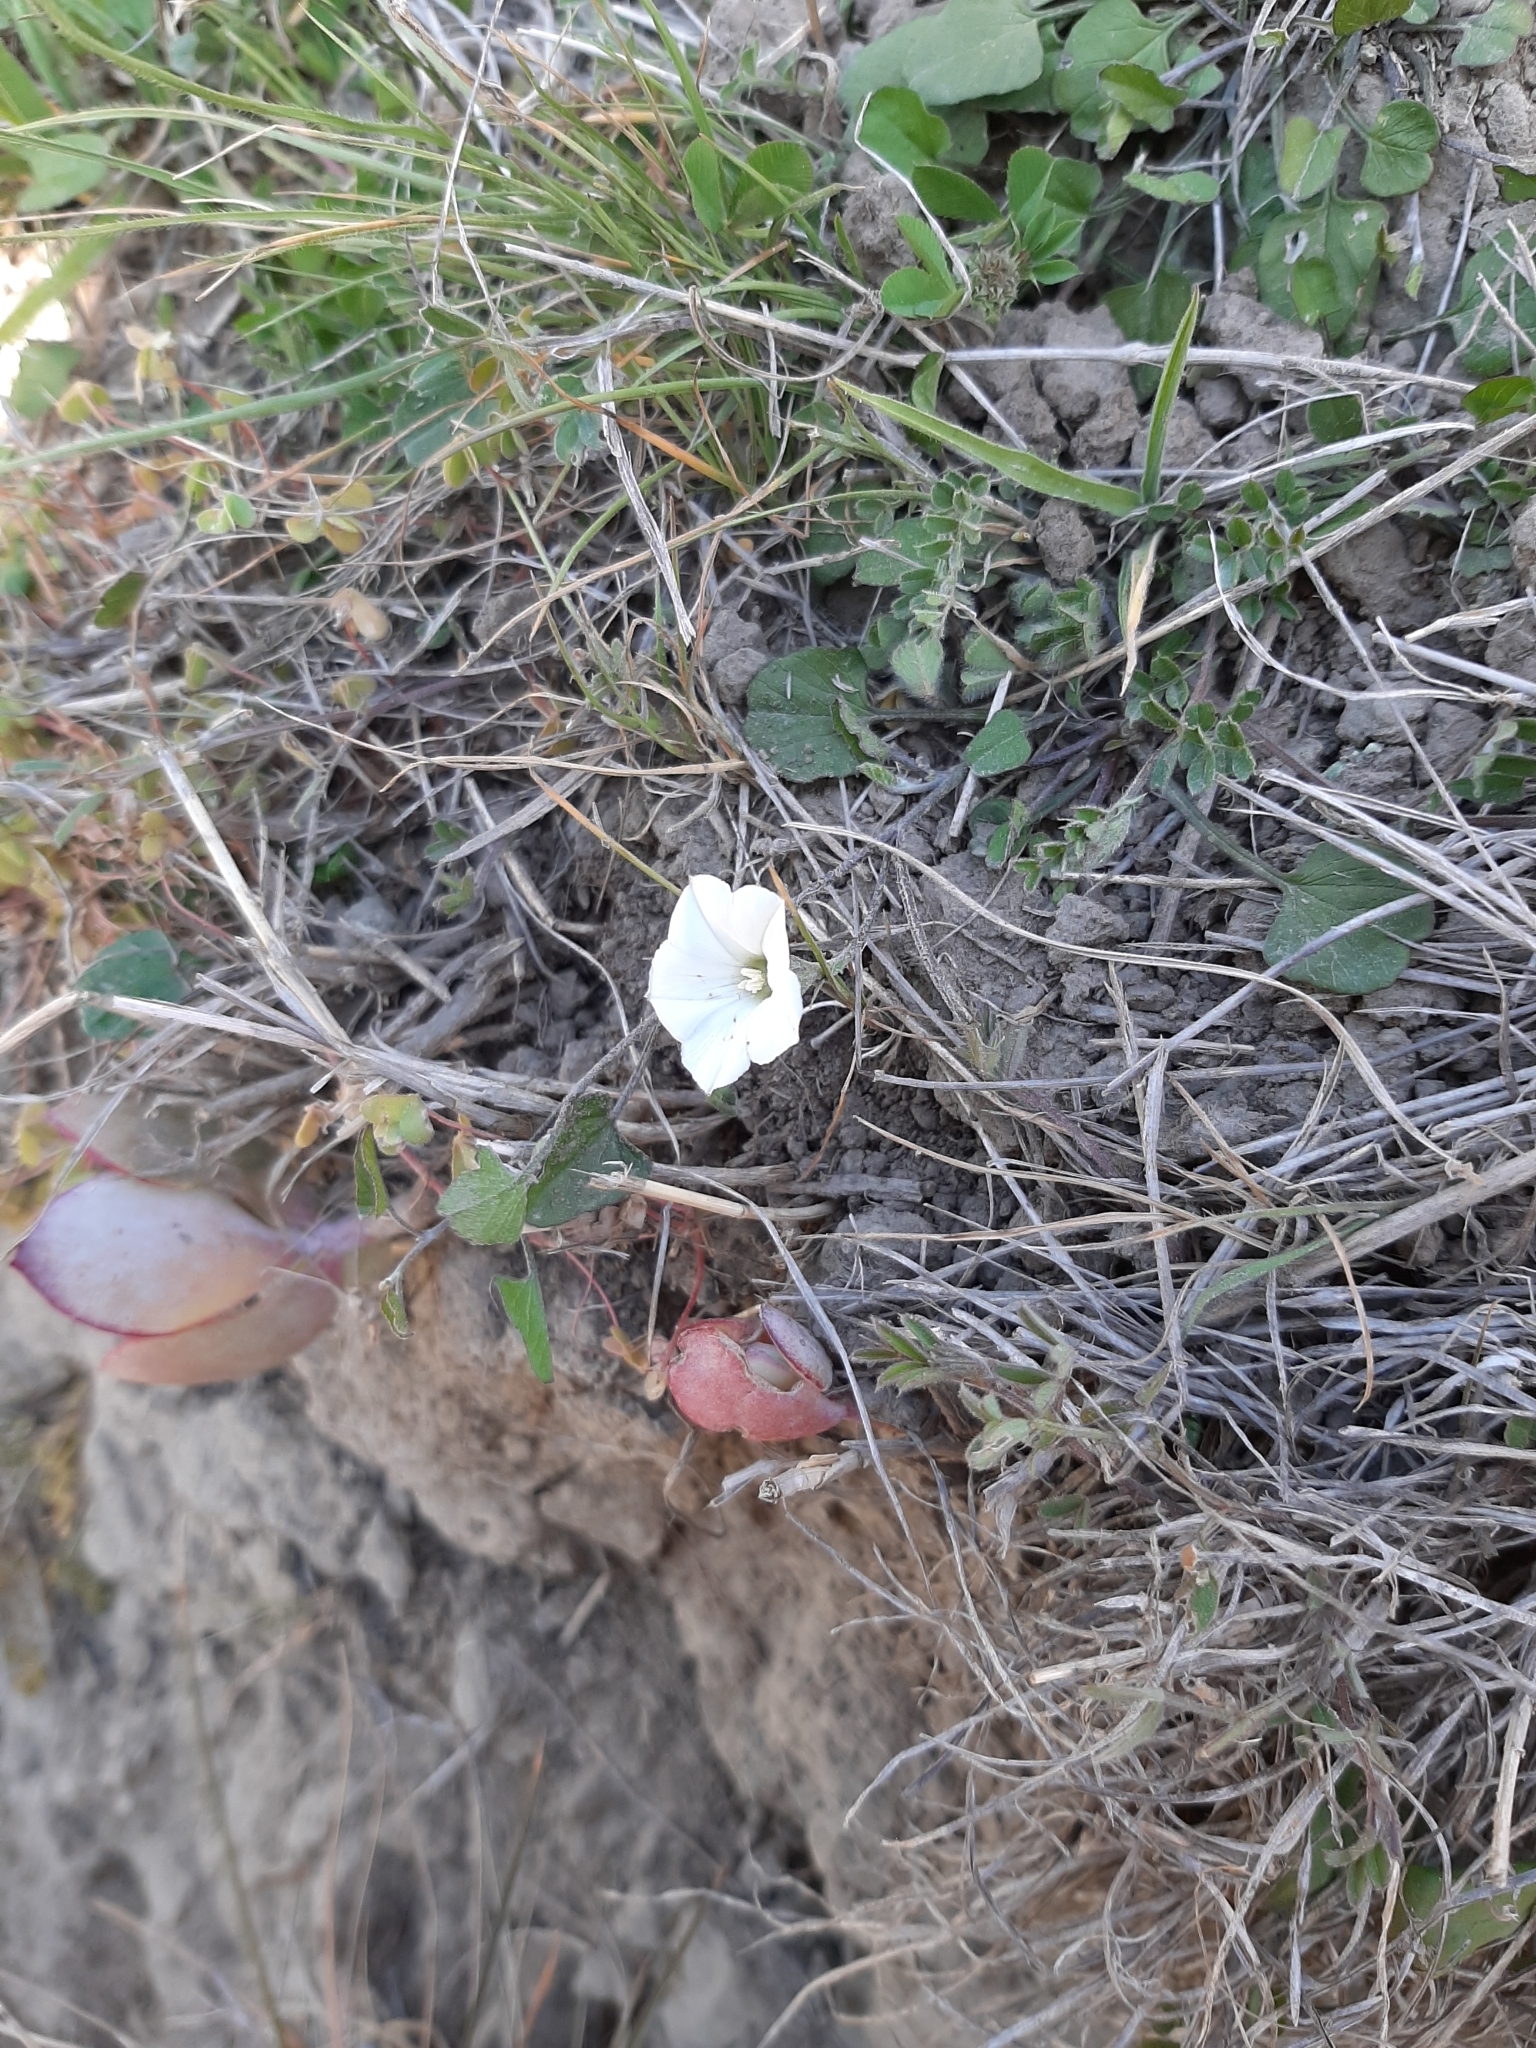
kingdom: Plantae
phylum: Tracheophyta
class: Magnoliopsida
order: Solanales
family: Convolvulaceae
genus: Convolvulus
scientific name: Convolvulus waitaha
